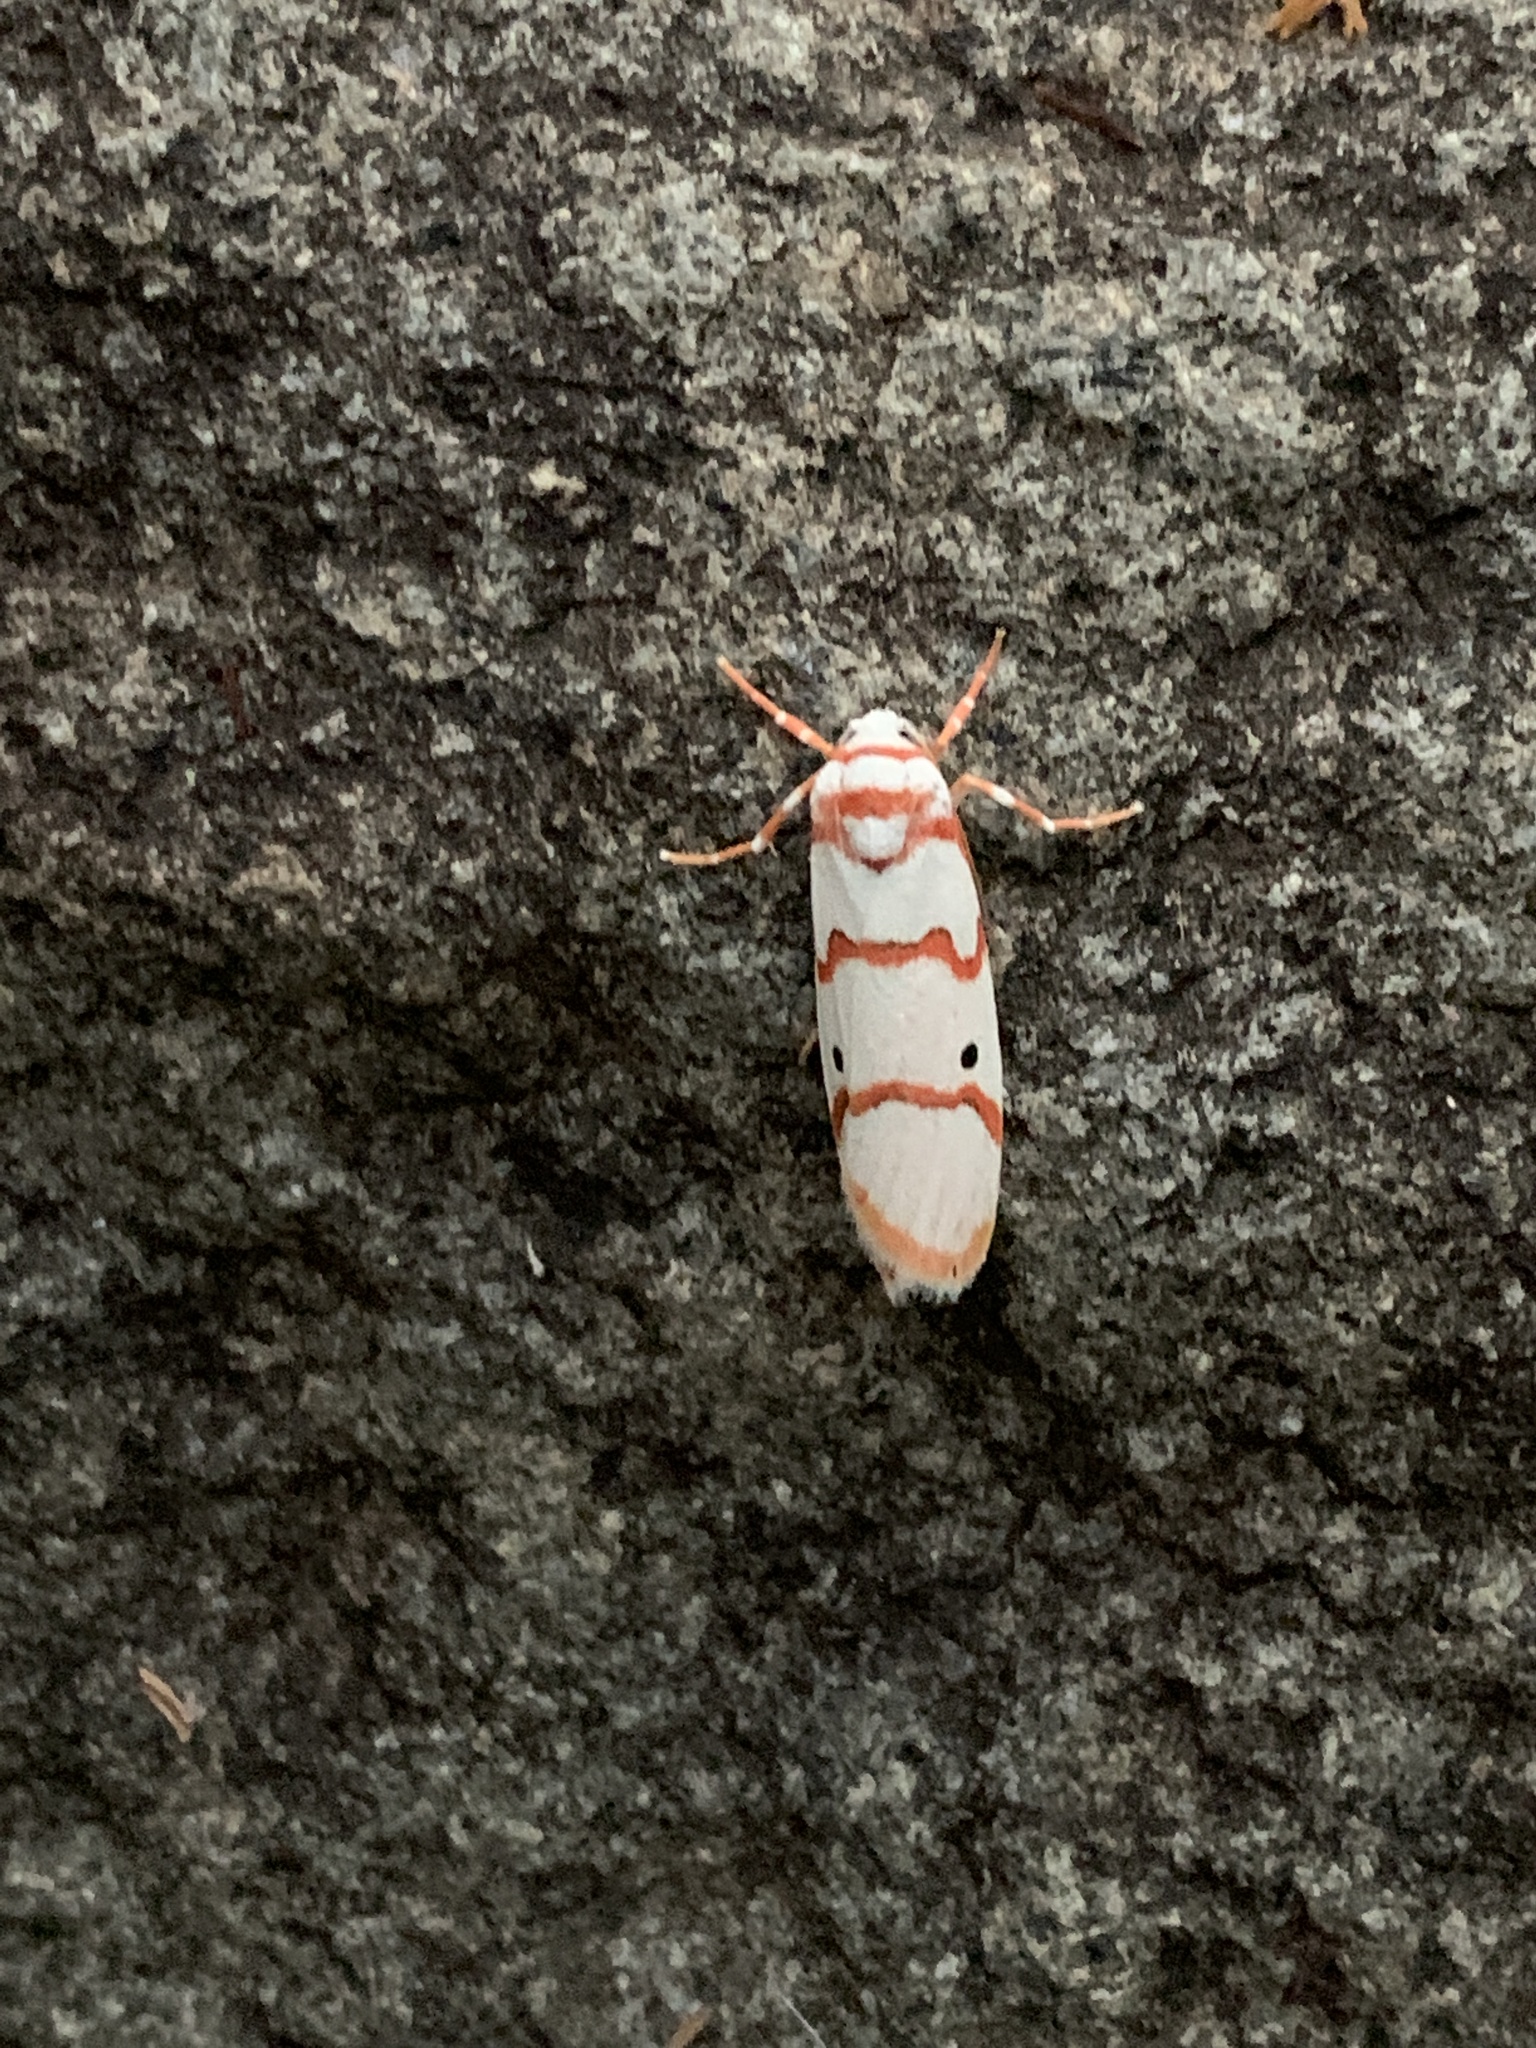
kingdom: Animalia
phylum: Arthropoda
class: Insecta
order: Lepidoptera
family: Erebidae
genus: Cyana
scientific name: Cyana puella
